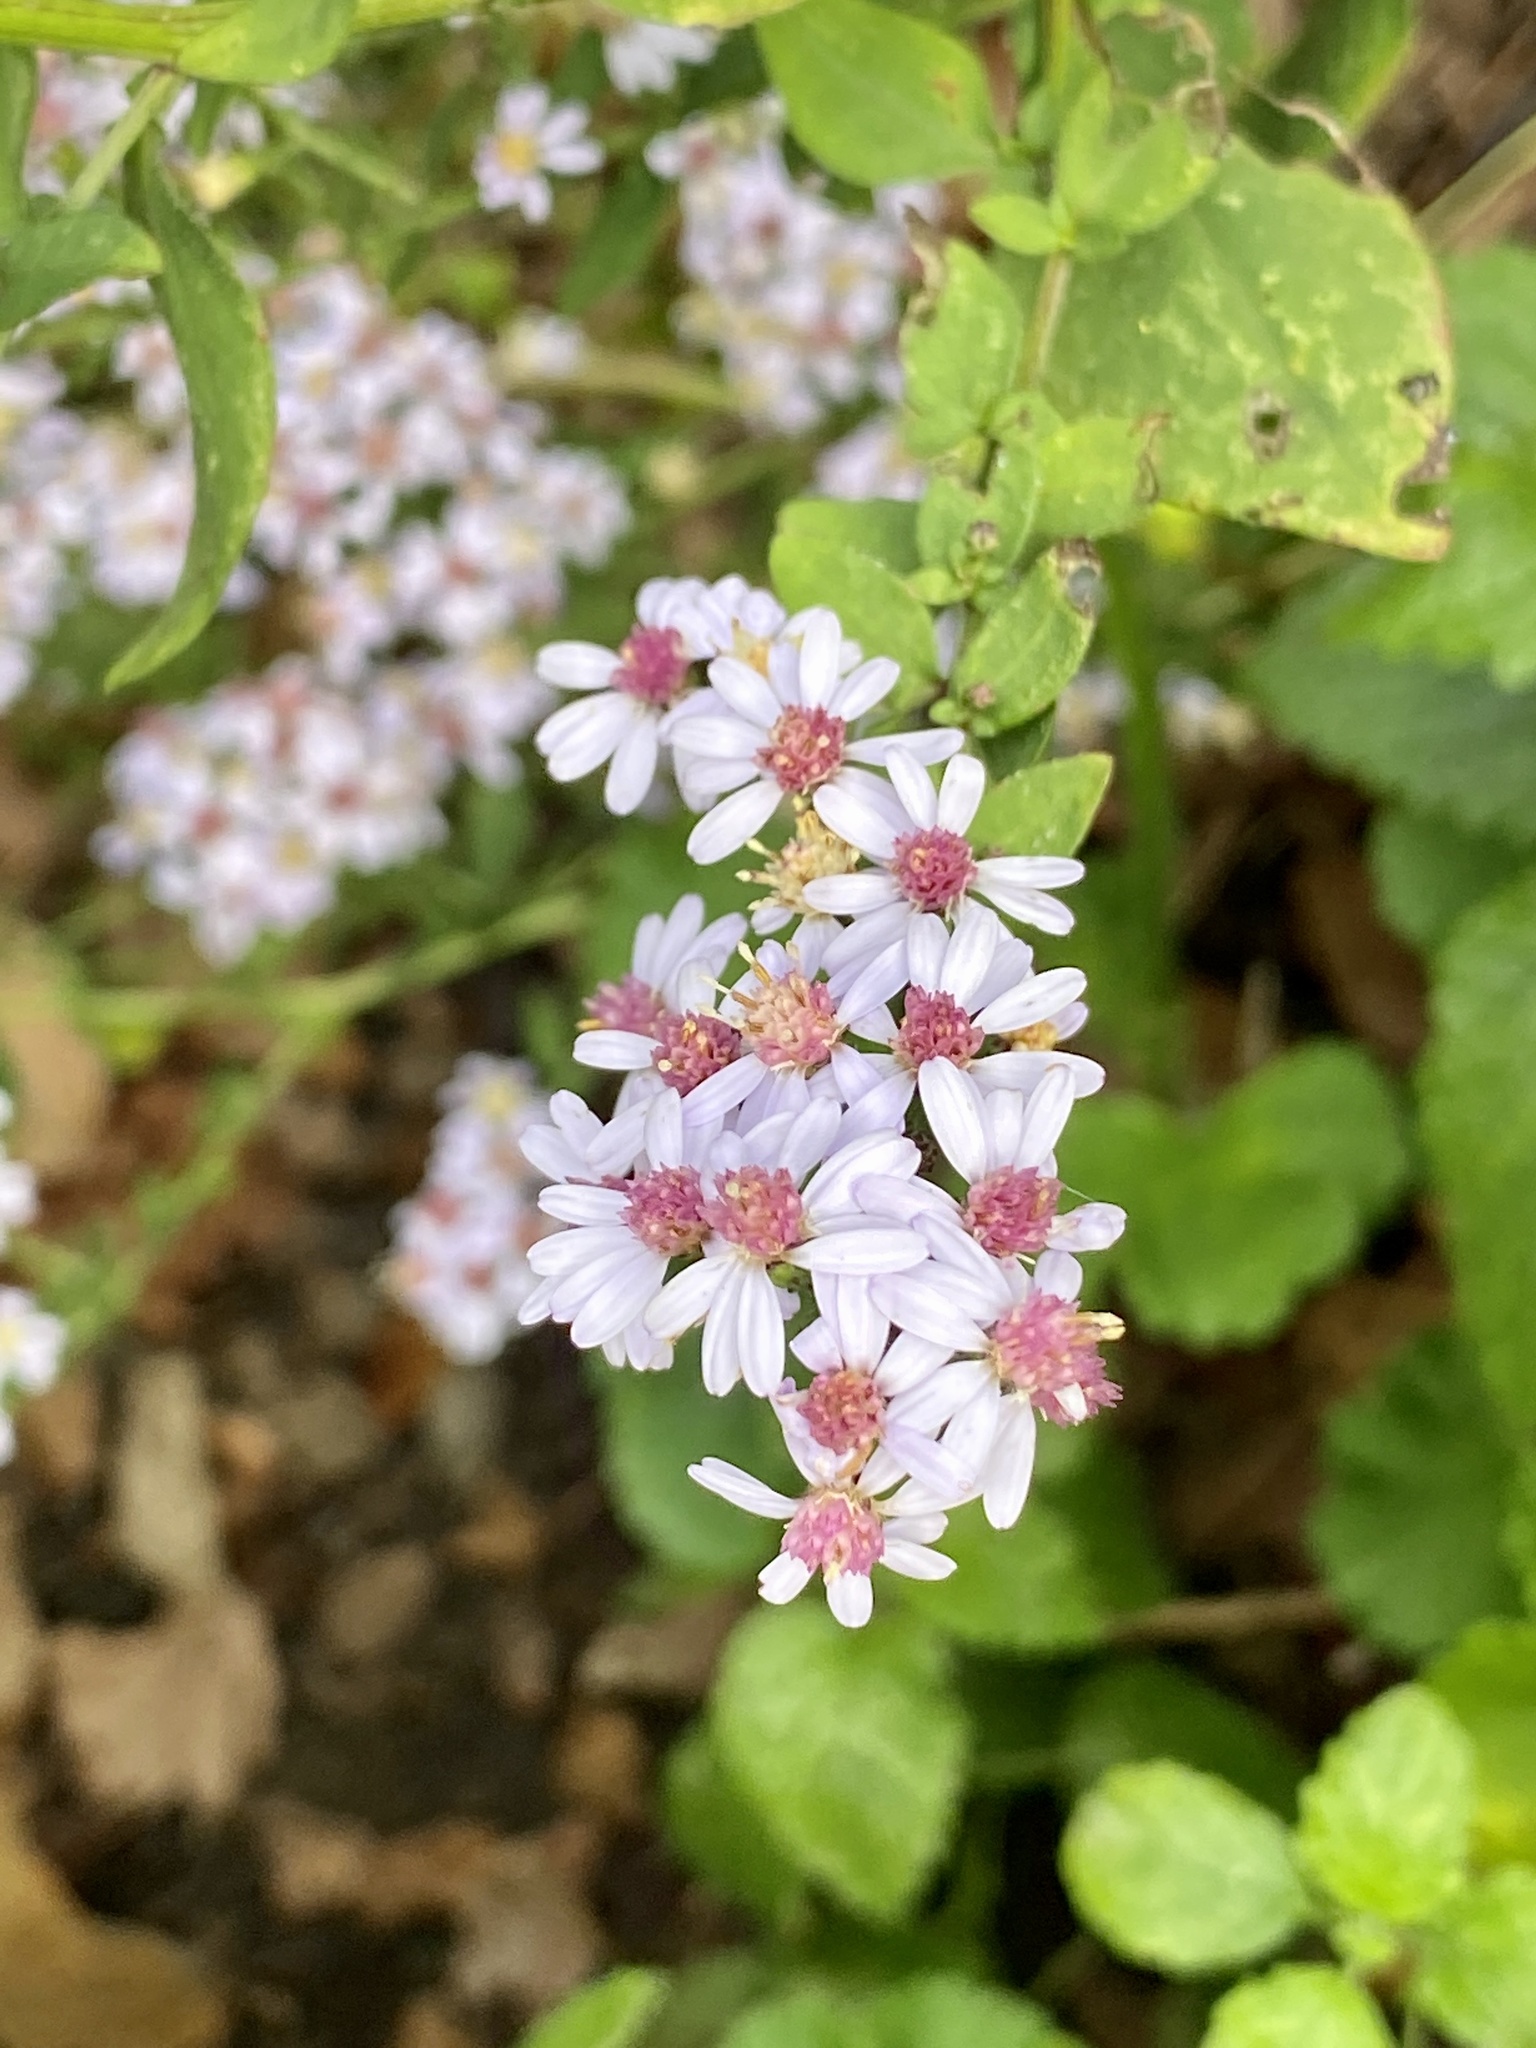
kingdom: Plantae
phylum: Tracheophyta
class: Magnoliopsida
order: Asterales
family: Asteraceae
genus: Symphyotrichum
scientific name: Symphyotrichum cordifolium
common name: Beeweed
